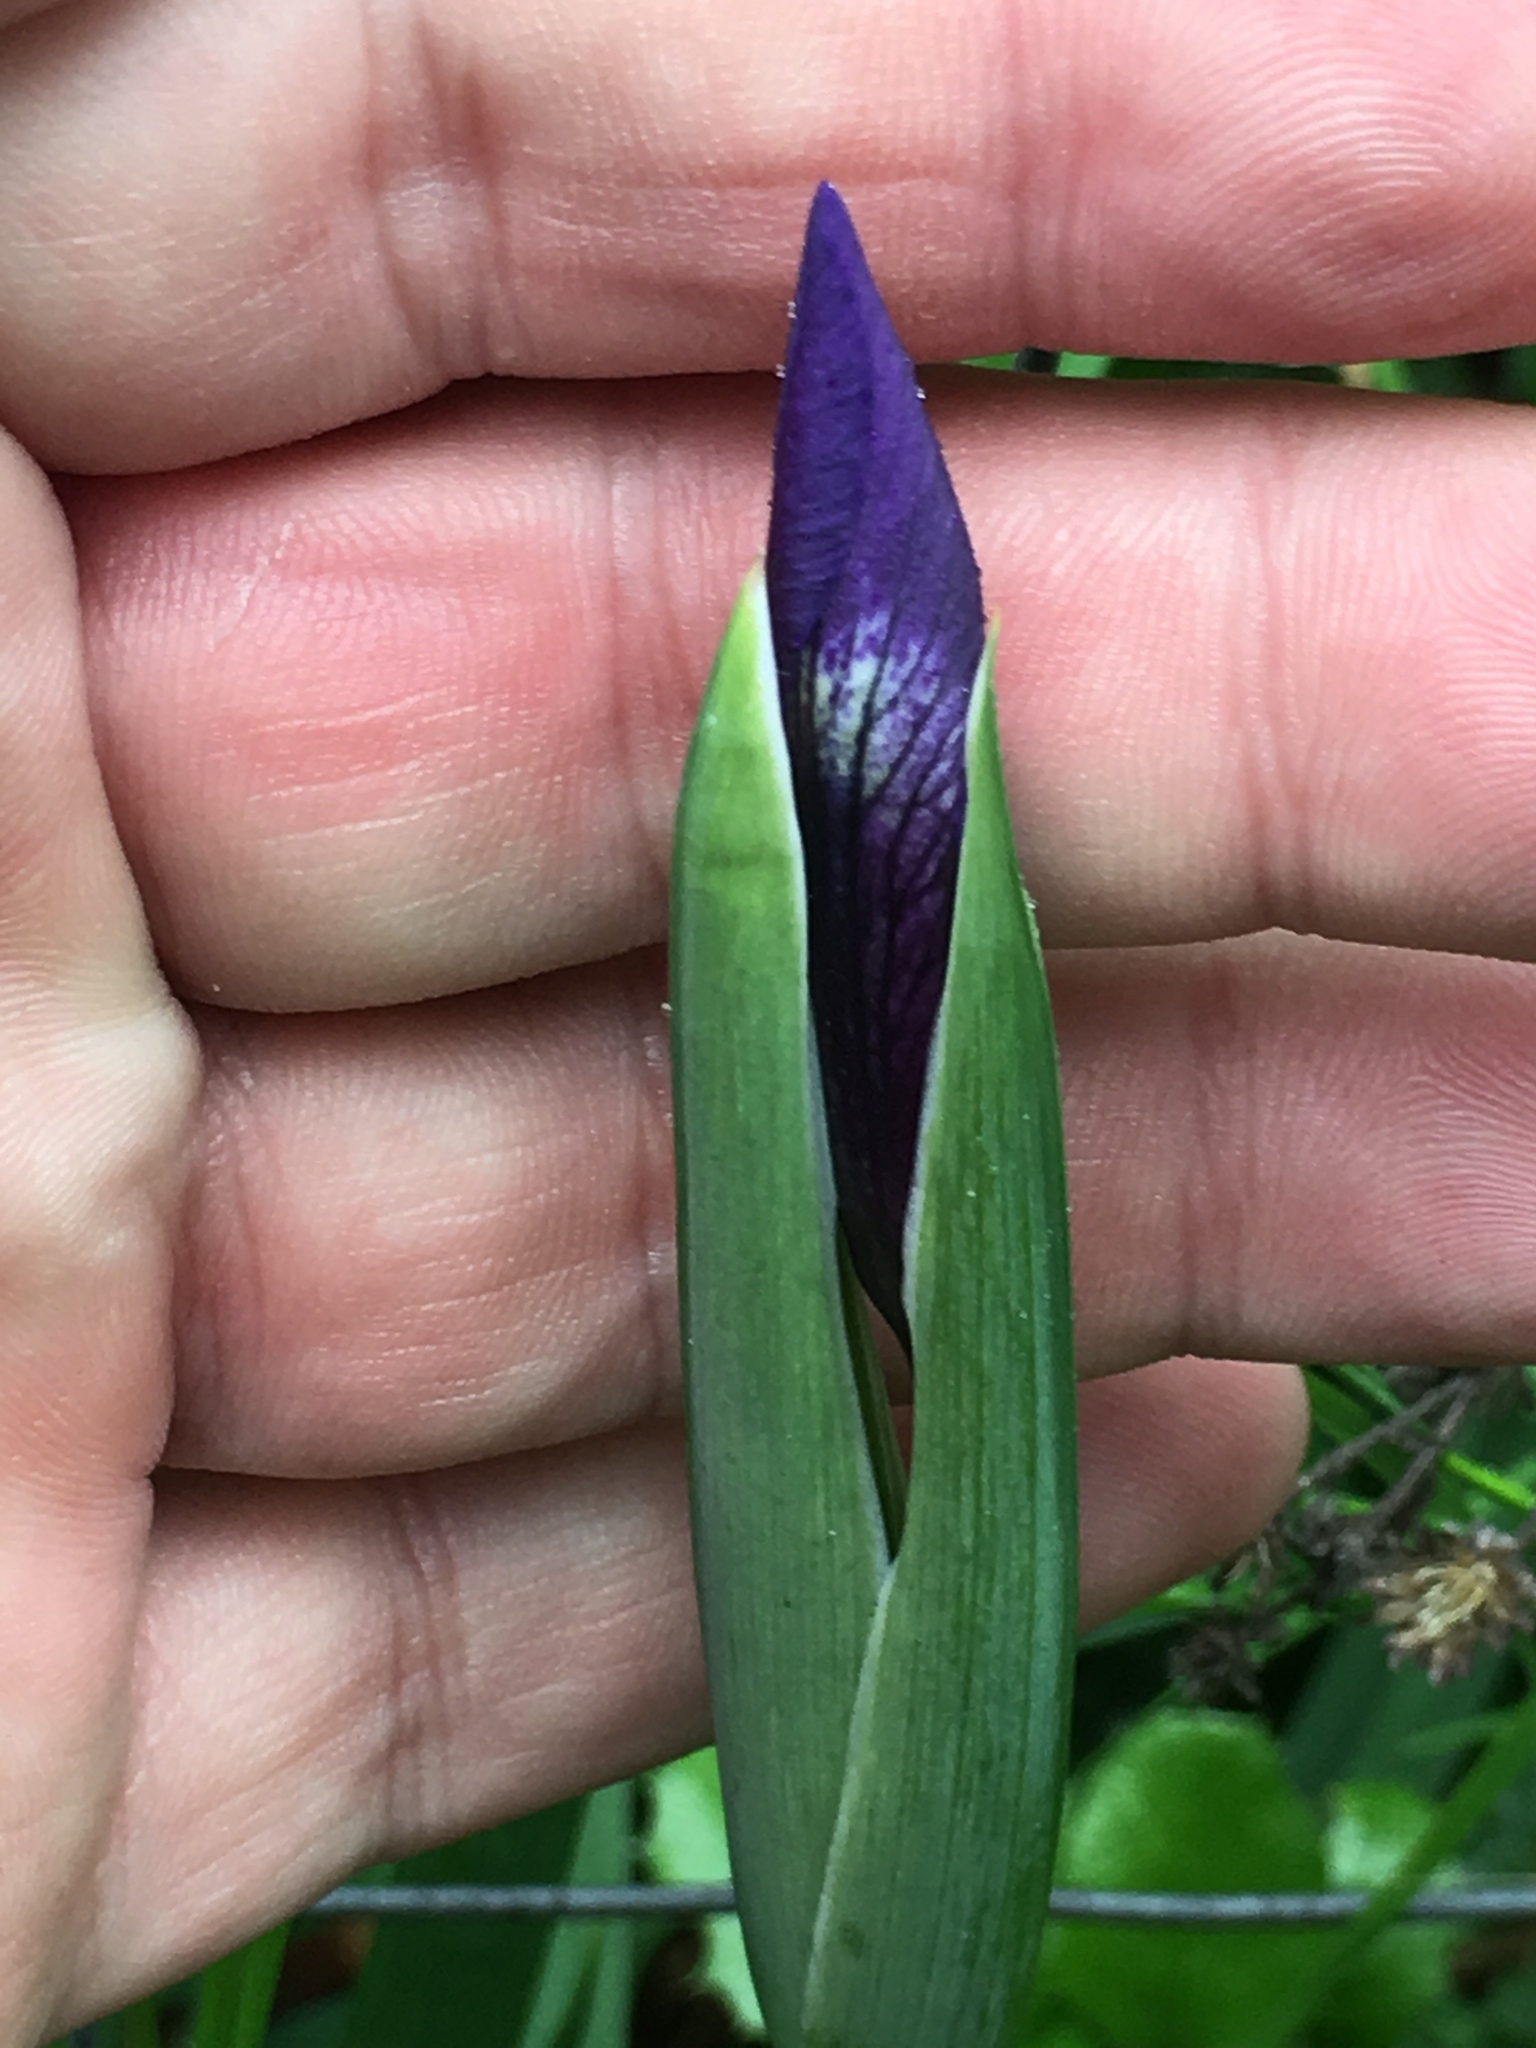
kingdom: Plantae
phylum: Tracheophyta
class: Liliopsida
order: Asparagales
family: Iridaceae
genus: Iris
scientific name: Iris douglasiana
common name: Marin iris
